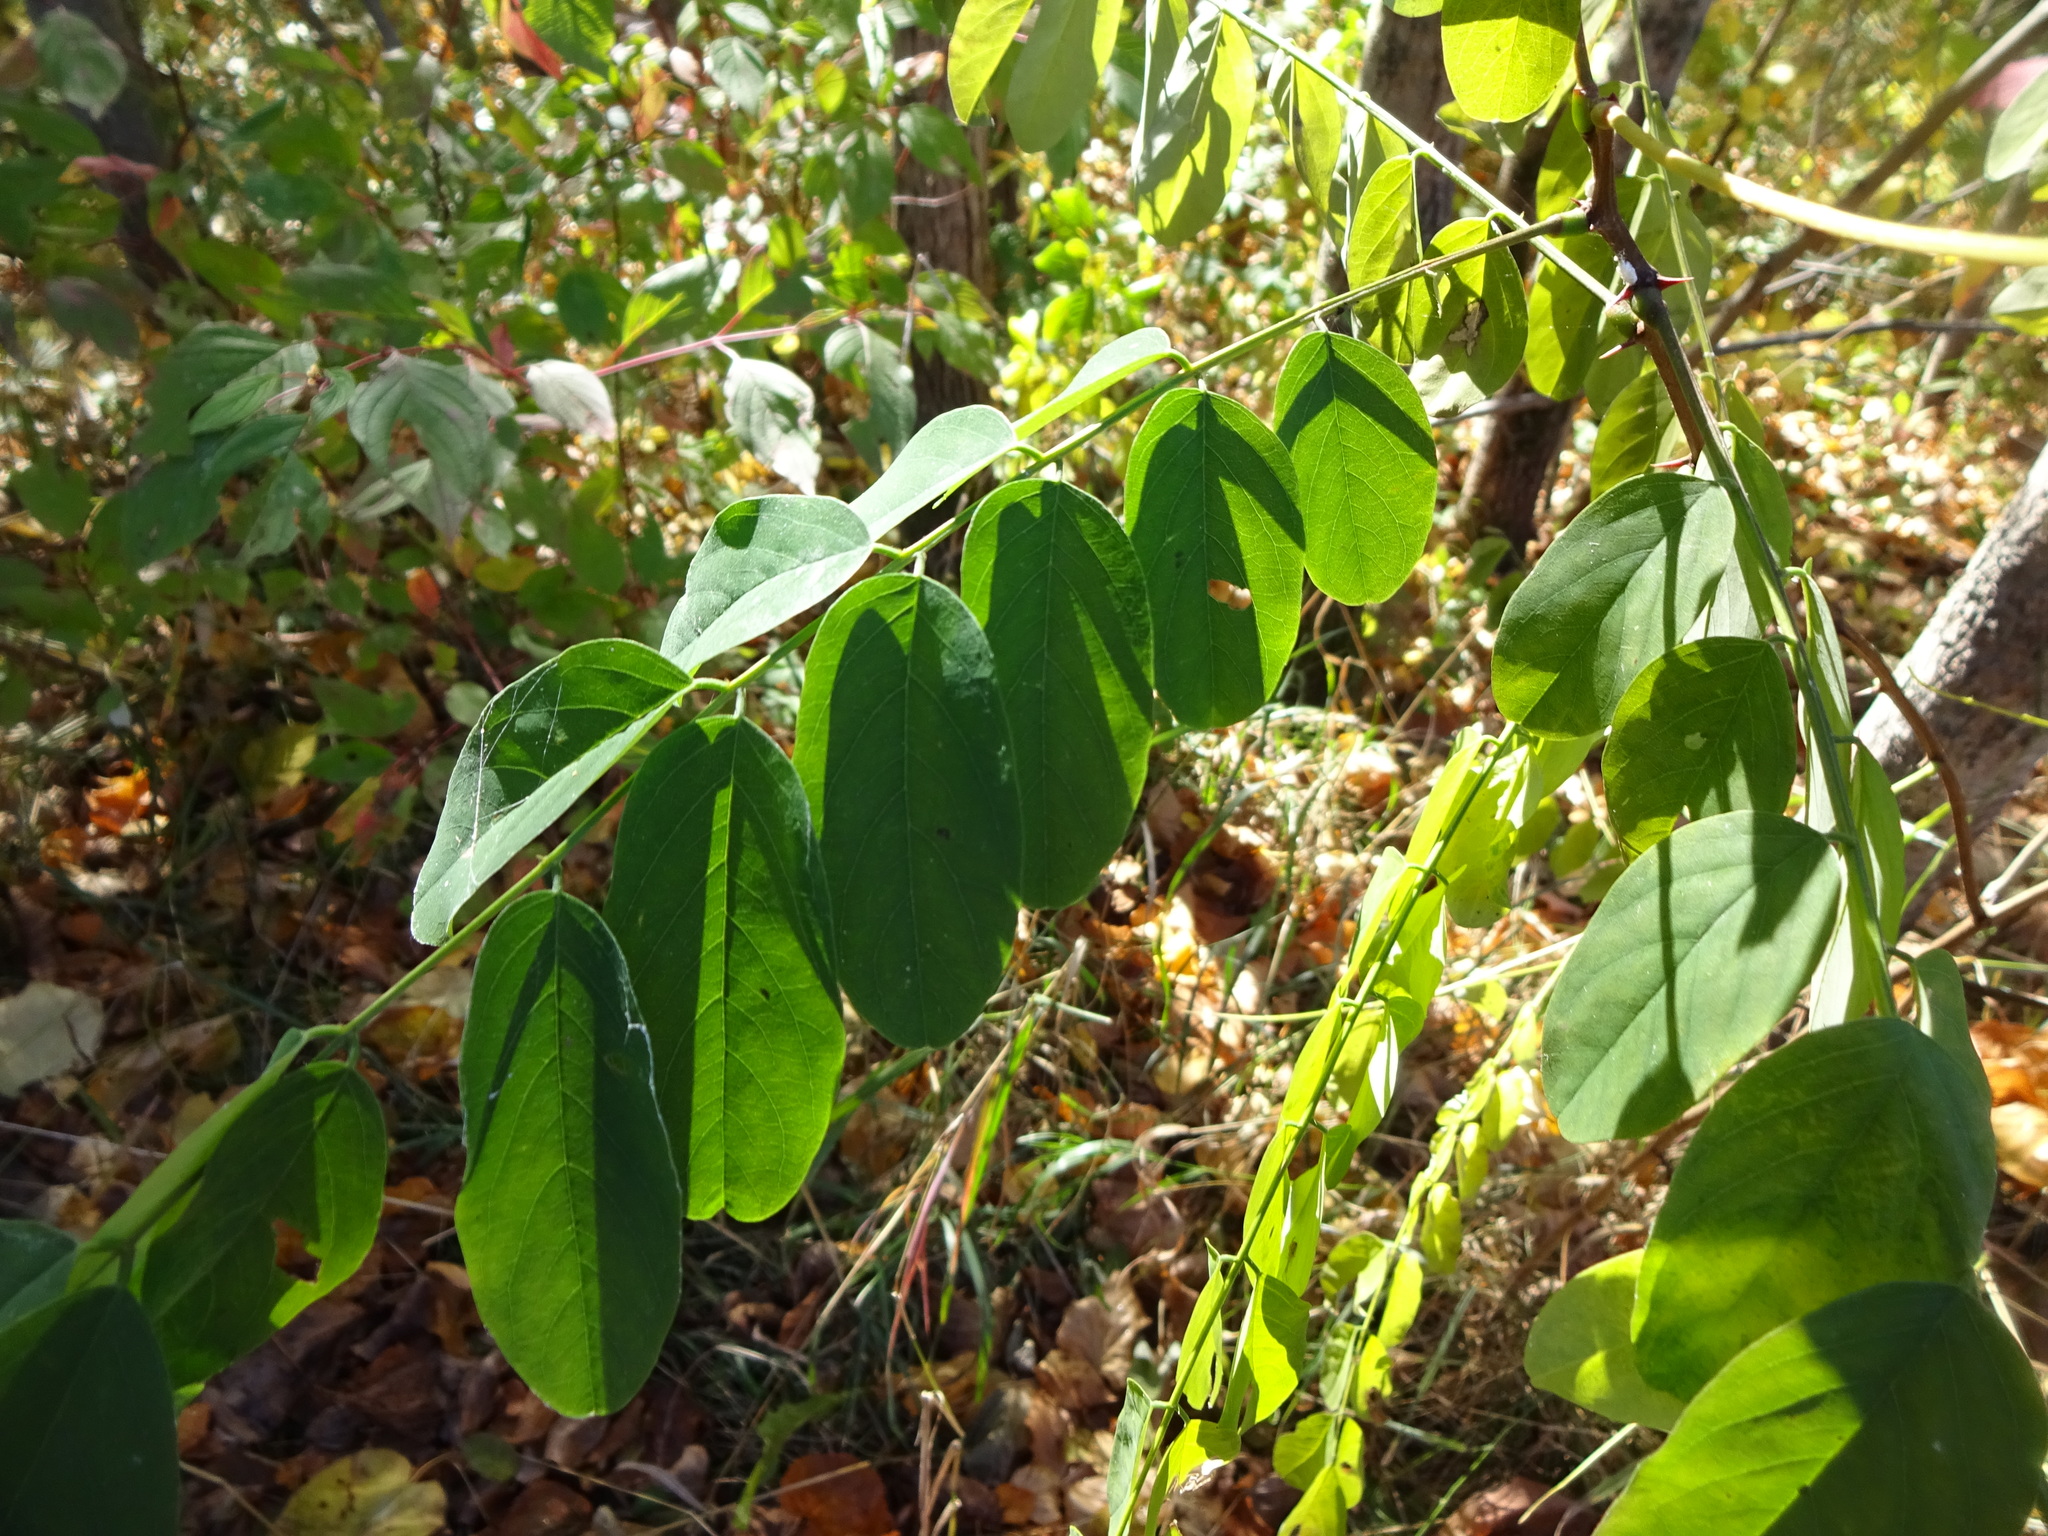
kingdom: Plantae
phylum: Tracheophyta
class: Magnoliopsida
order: Fabales
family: Fabaceae
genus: Robinia
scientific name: Robinia pseudoacacia
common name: Black locust
